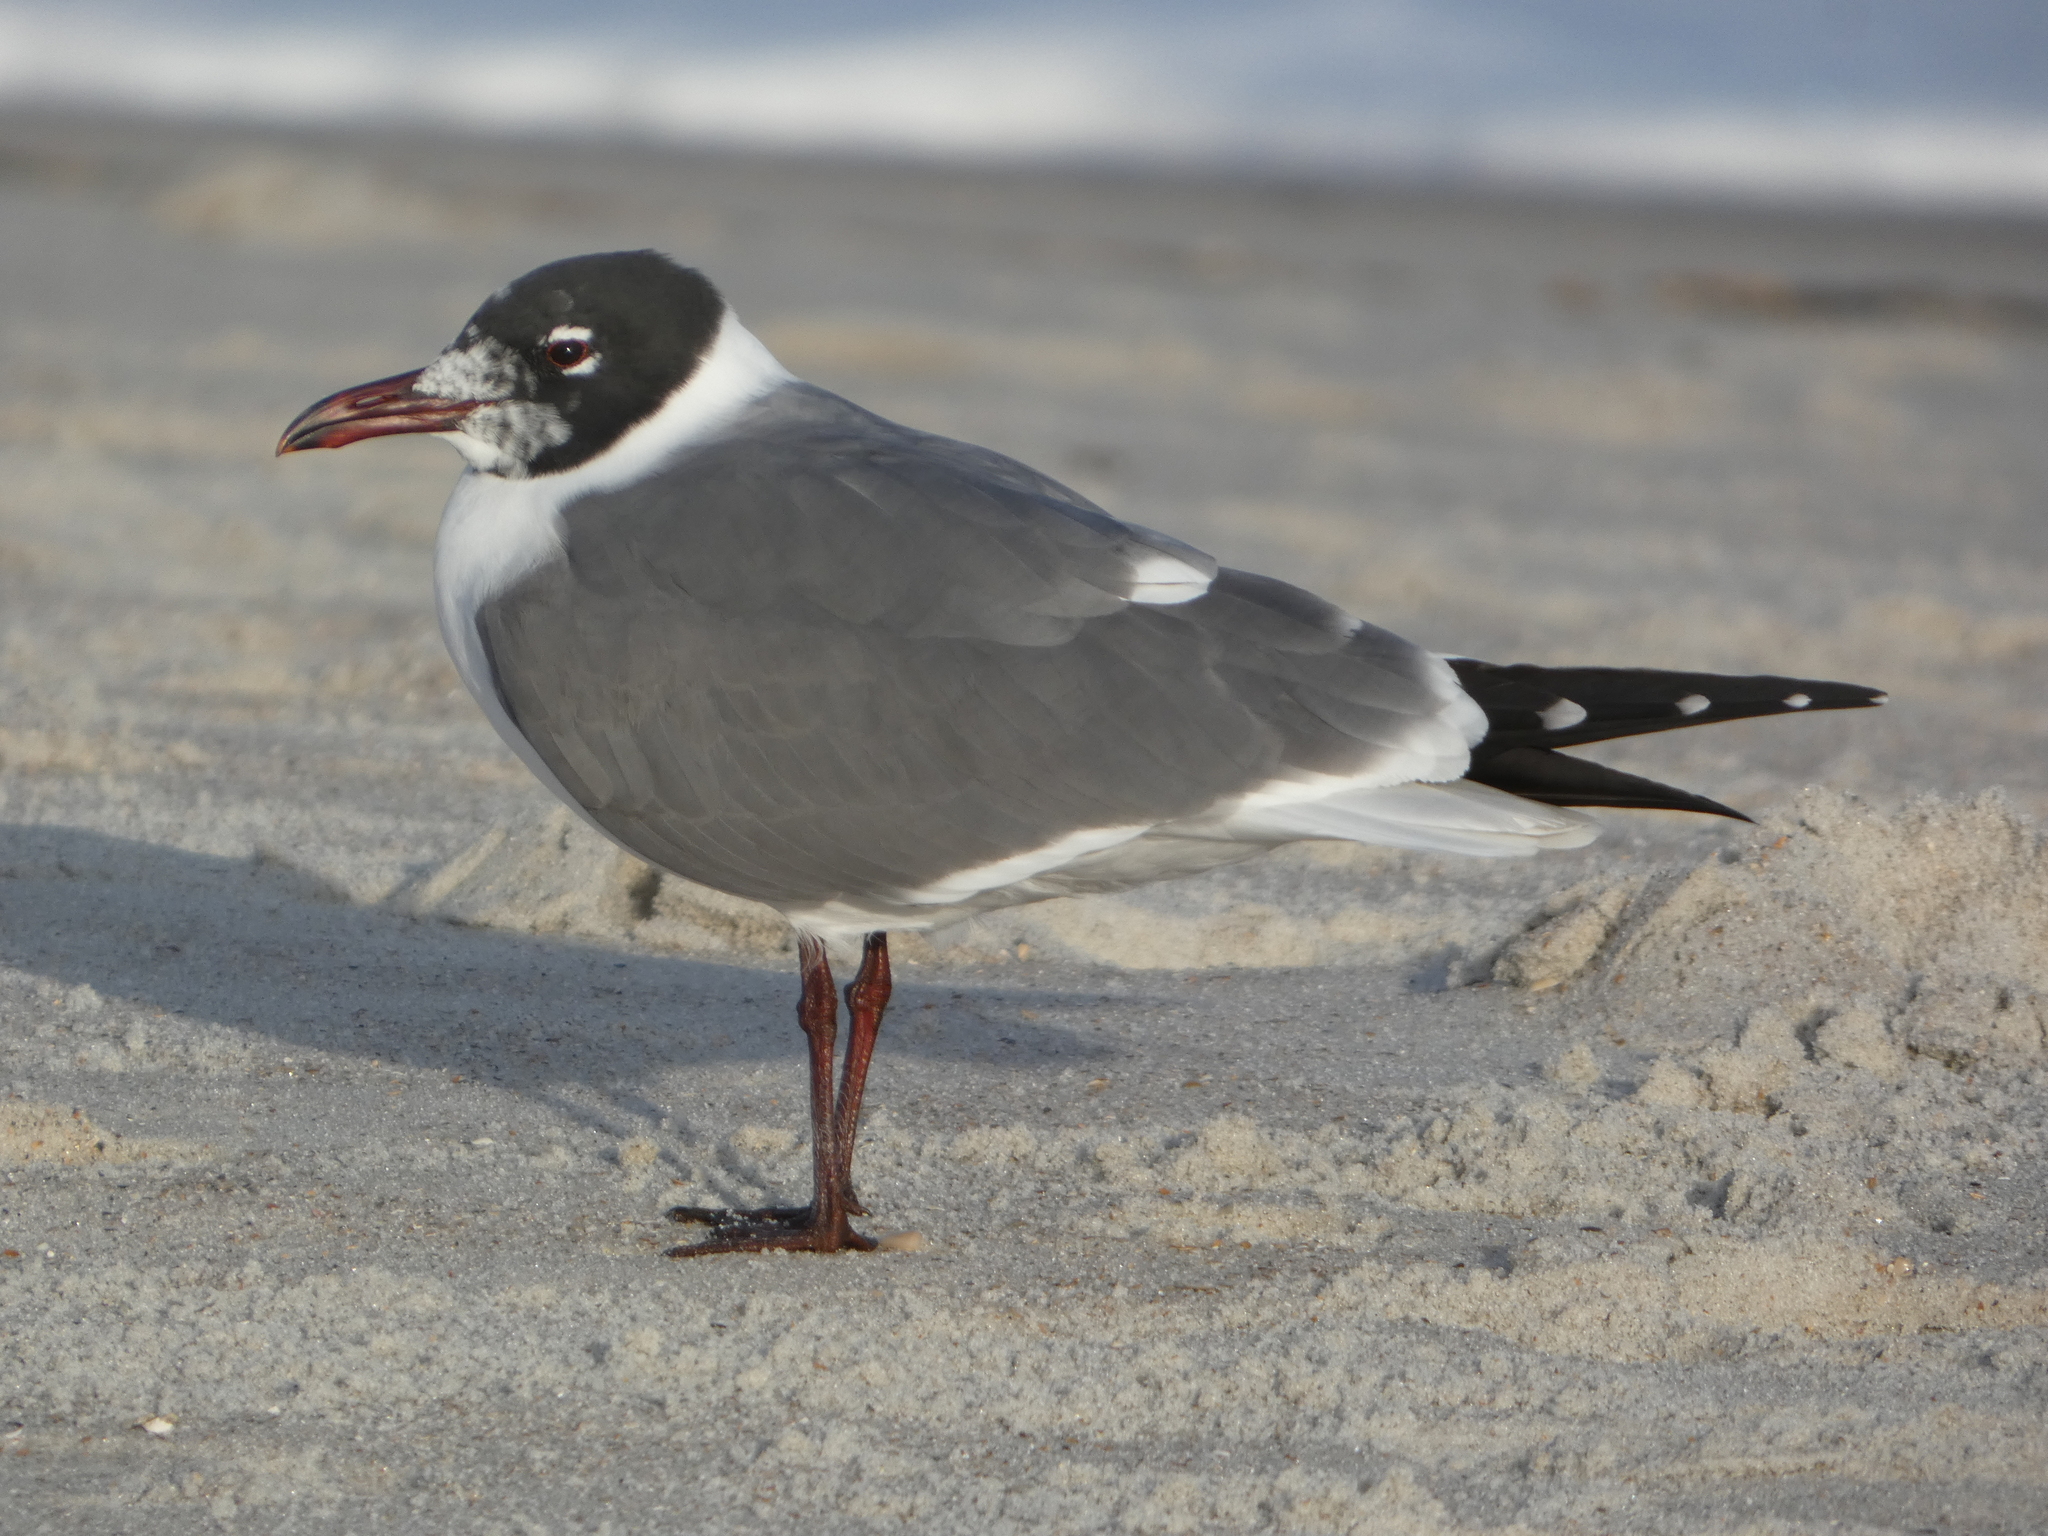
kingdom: Animalia
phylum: Chordata
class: Aves
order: Charadriiformes
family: Laridae
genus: Leucophaeus
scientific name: Leucophaeus atricilla
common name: Laughing gull
